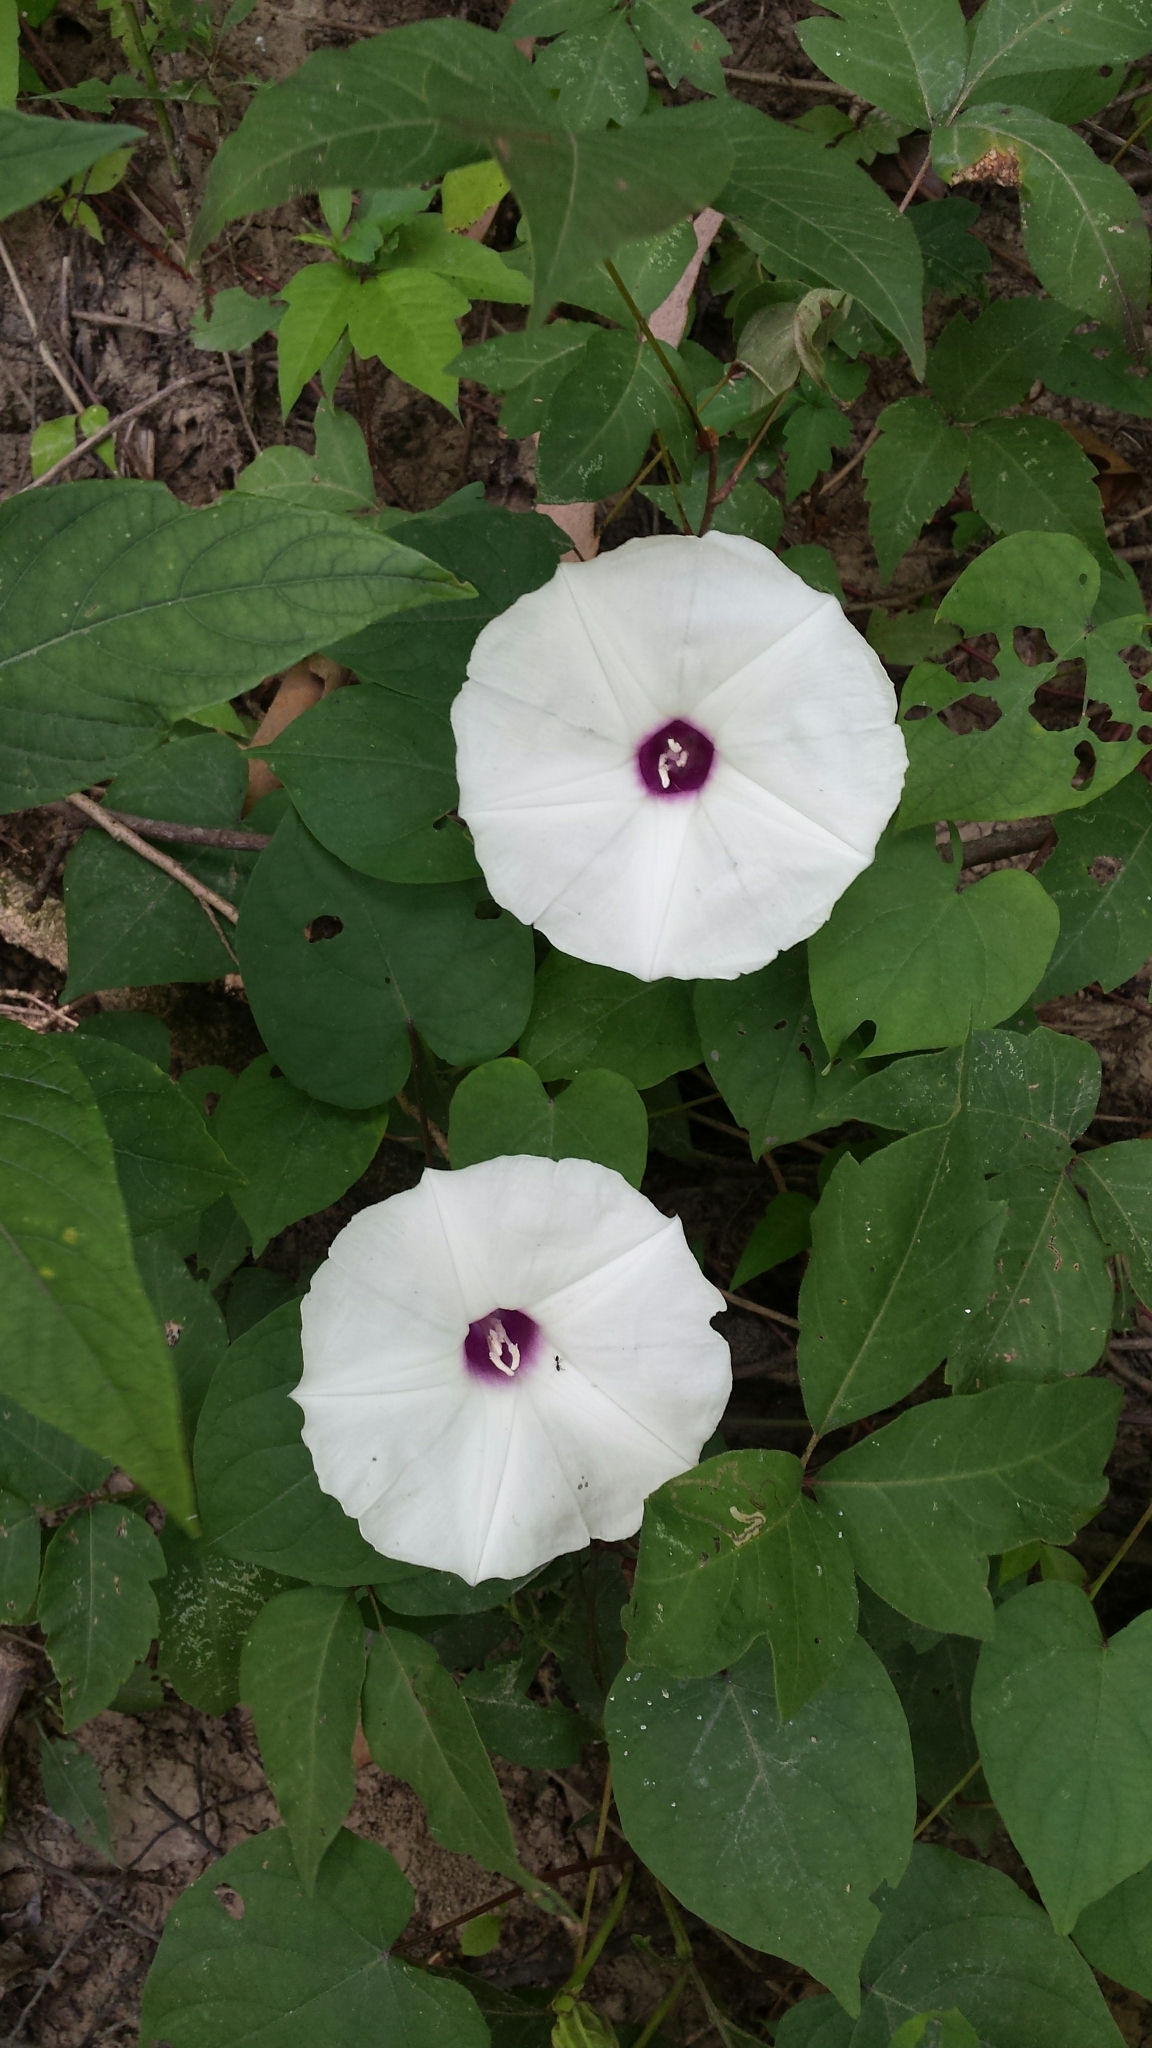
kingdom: Plantae
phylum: Tracheophyta
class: Magnoliopsida
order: Solanales
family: Convolvulaceae
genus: Ipomoea
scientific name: Ipomoea pandurata
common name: Man-of-the-earth
